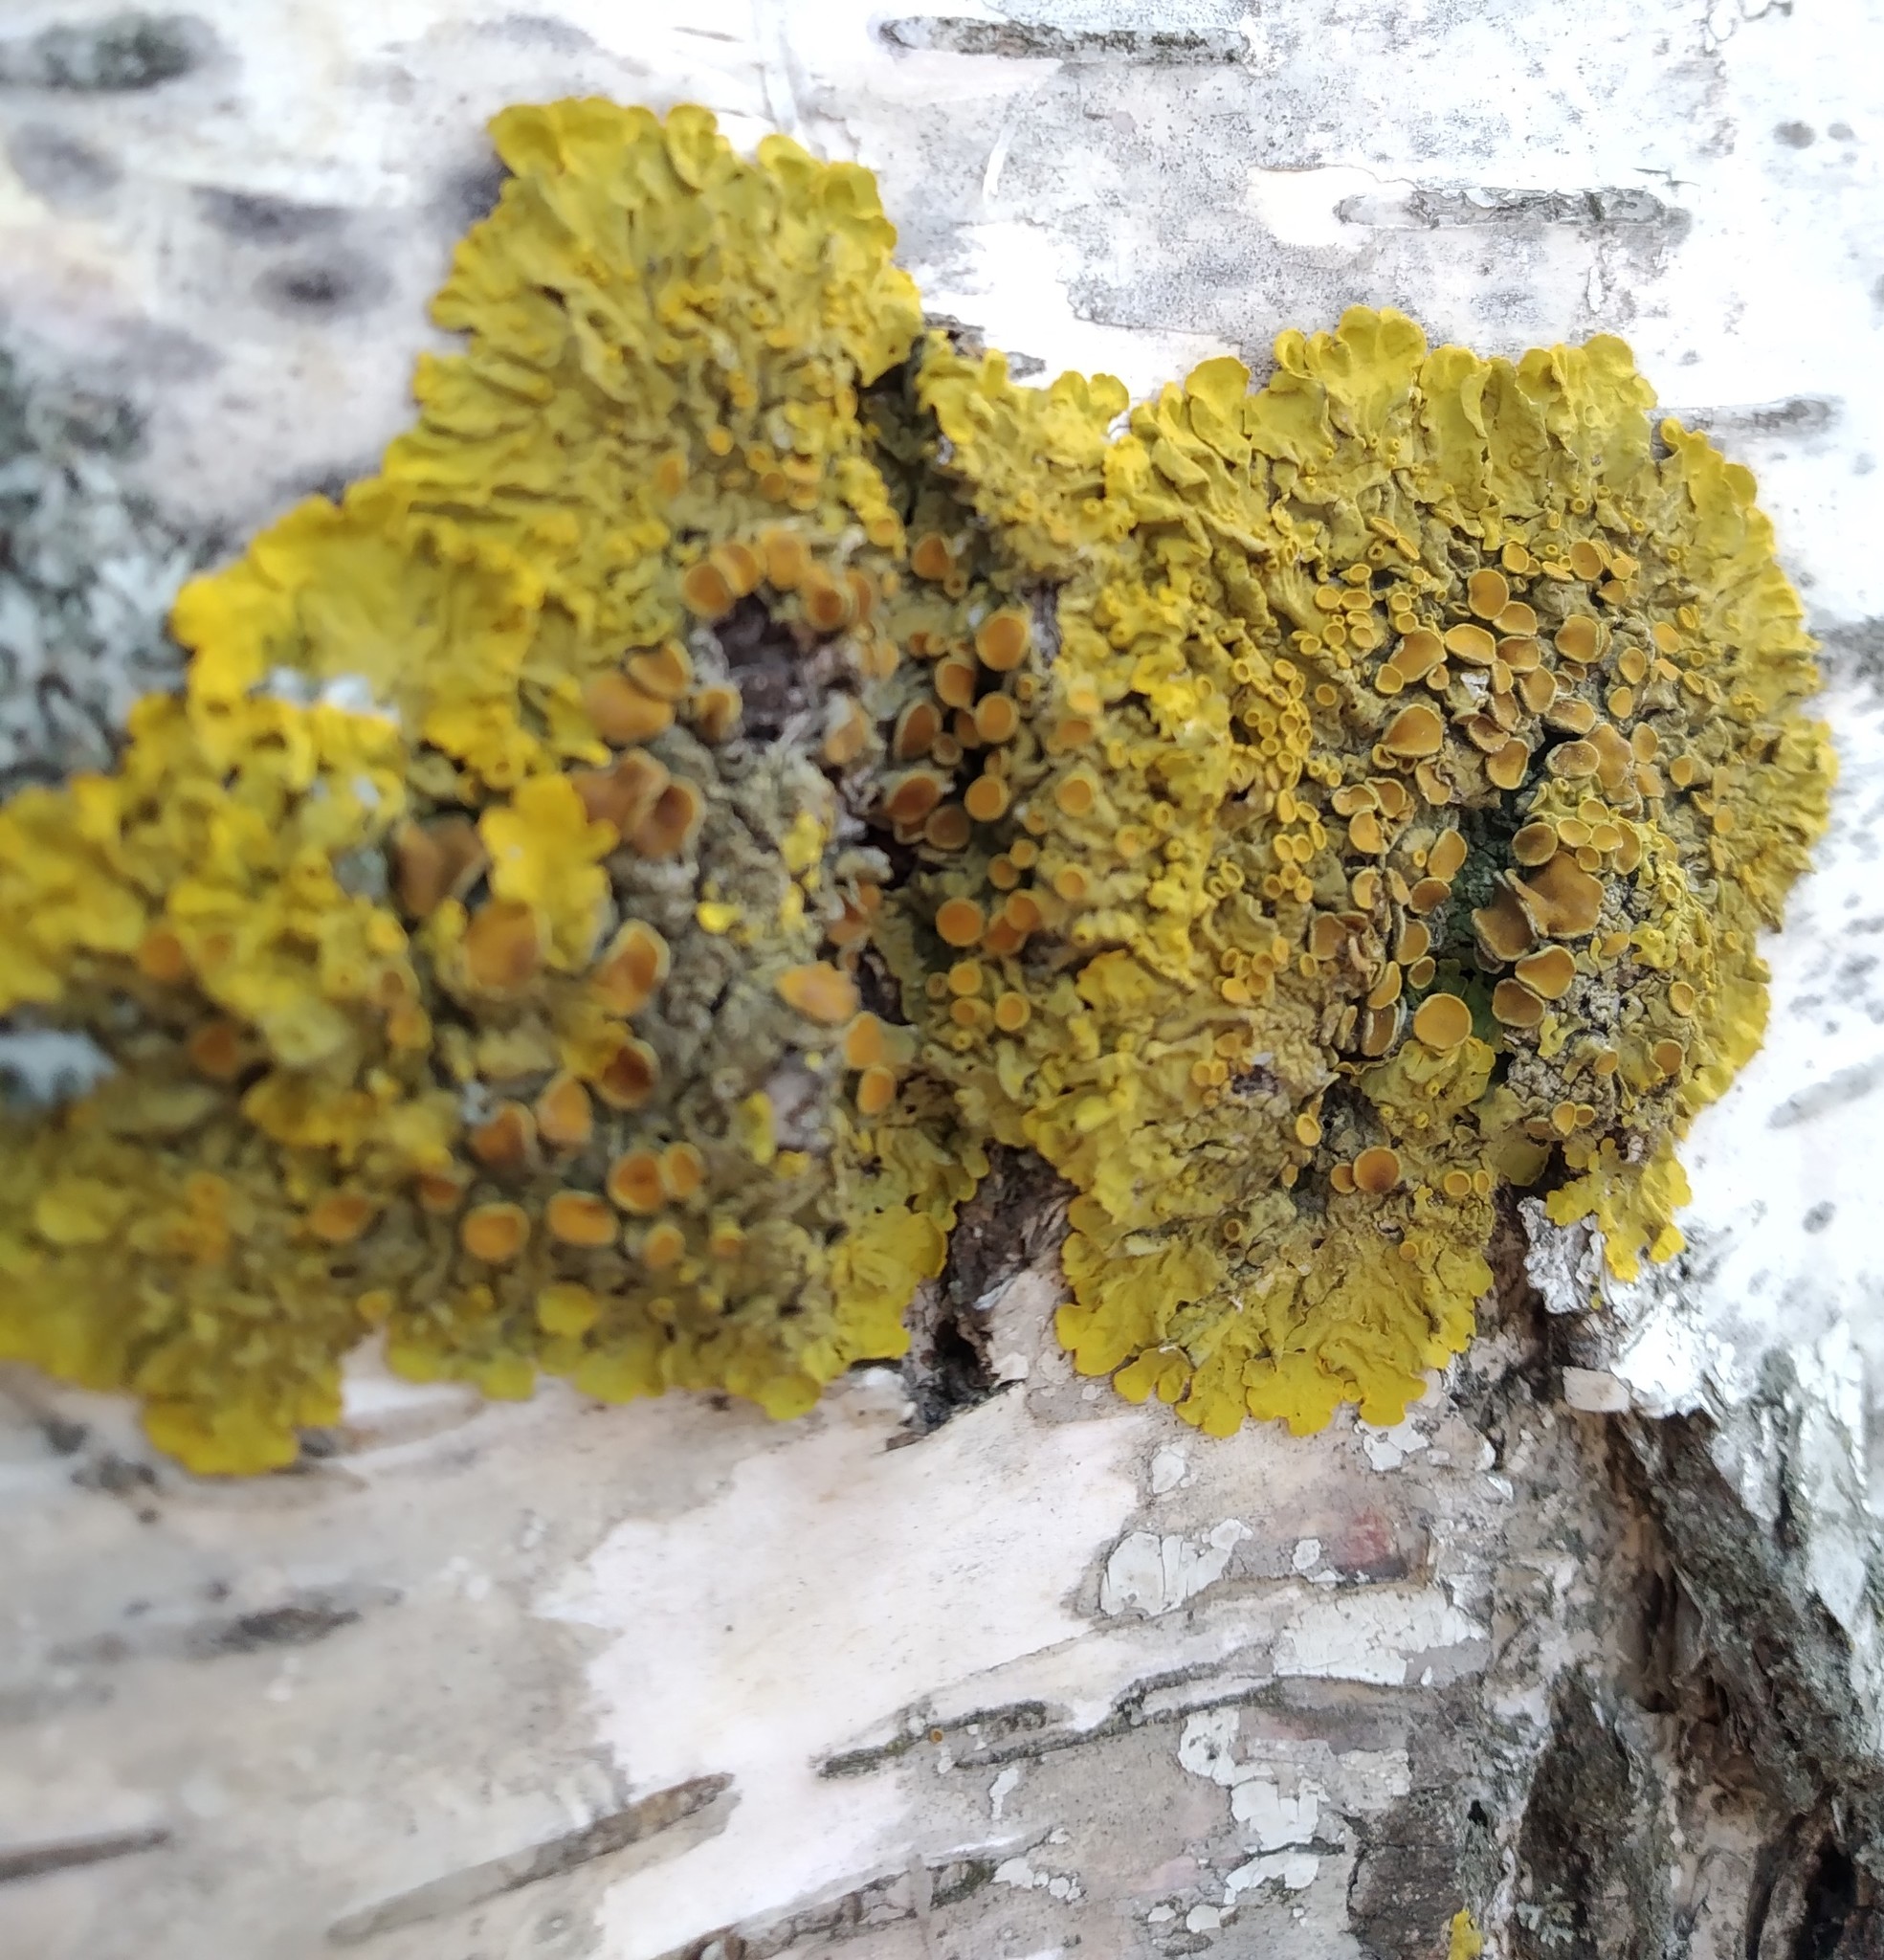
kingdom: Fungi
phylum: Ascomycota
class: Lecanoromycetes
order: Teloschistales
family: Teloschistaceae
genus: Xanthoria
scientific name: Xanthoria parietina
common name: Common orange lichen
